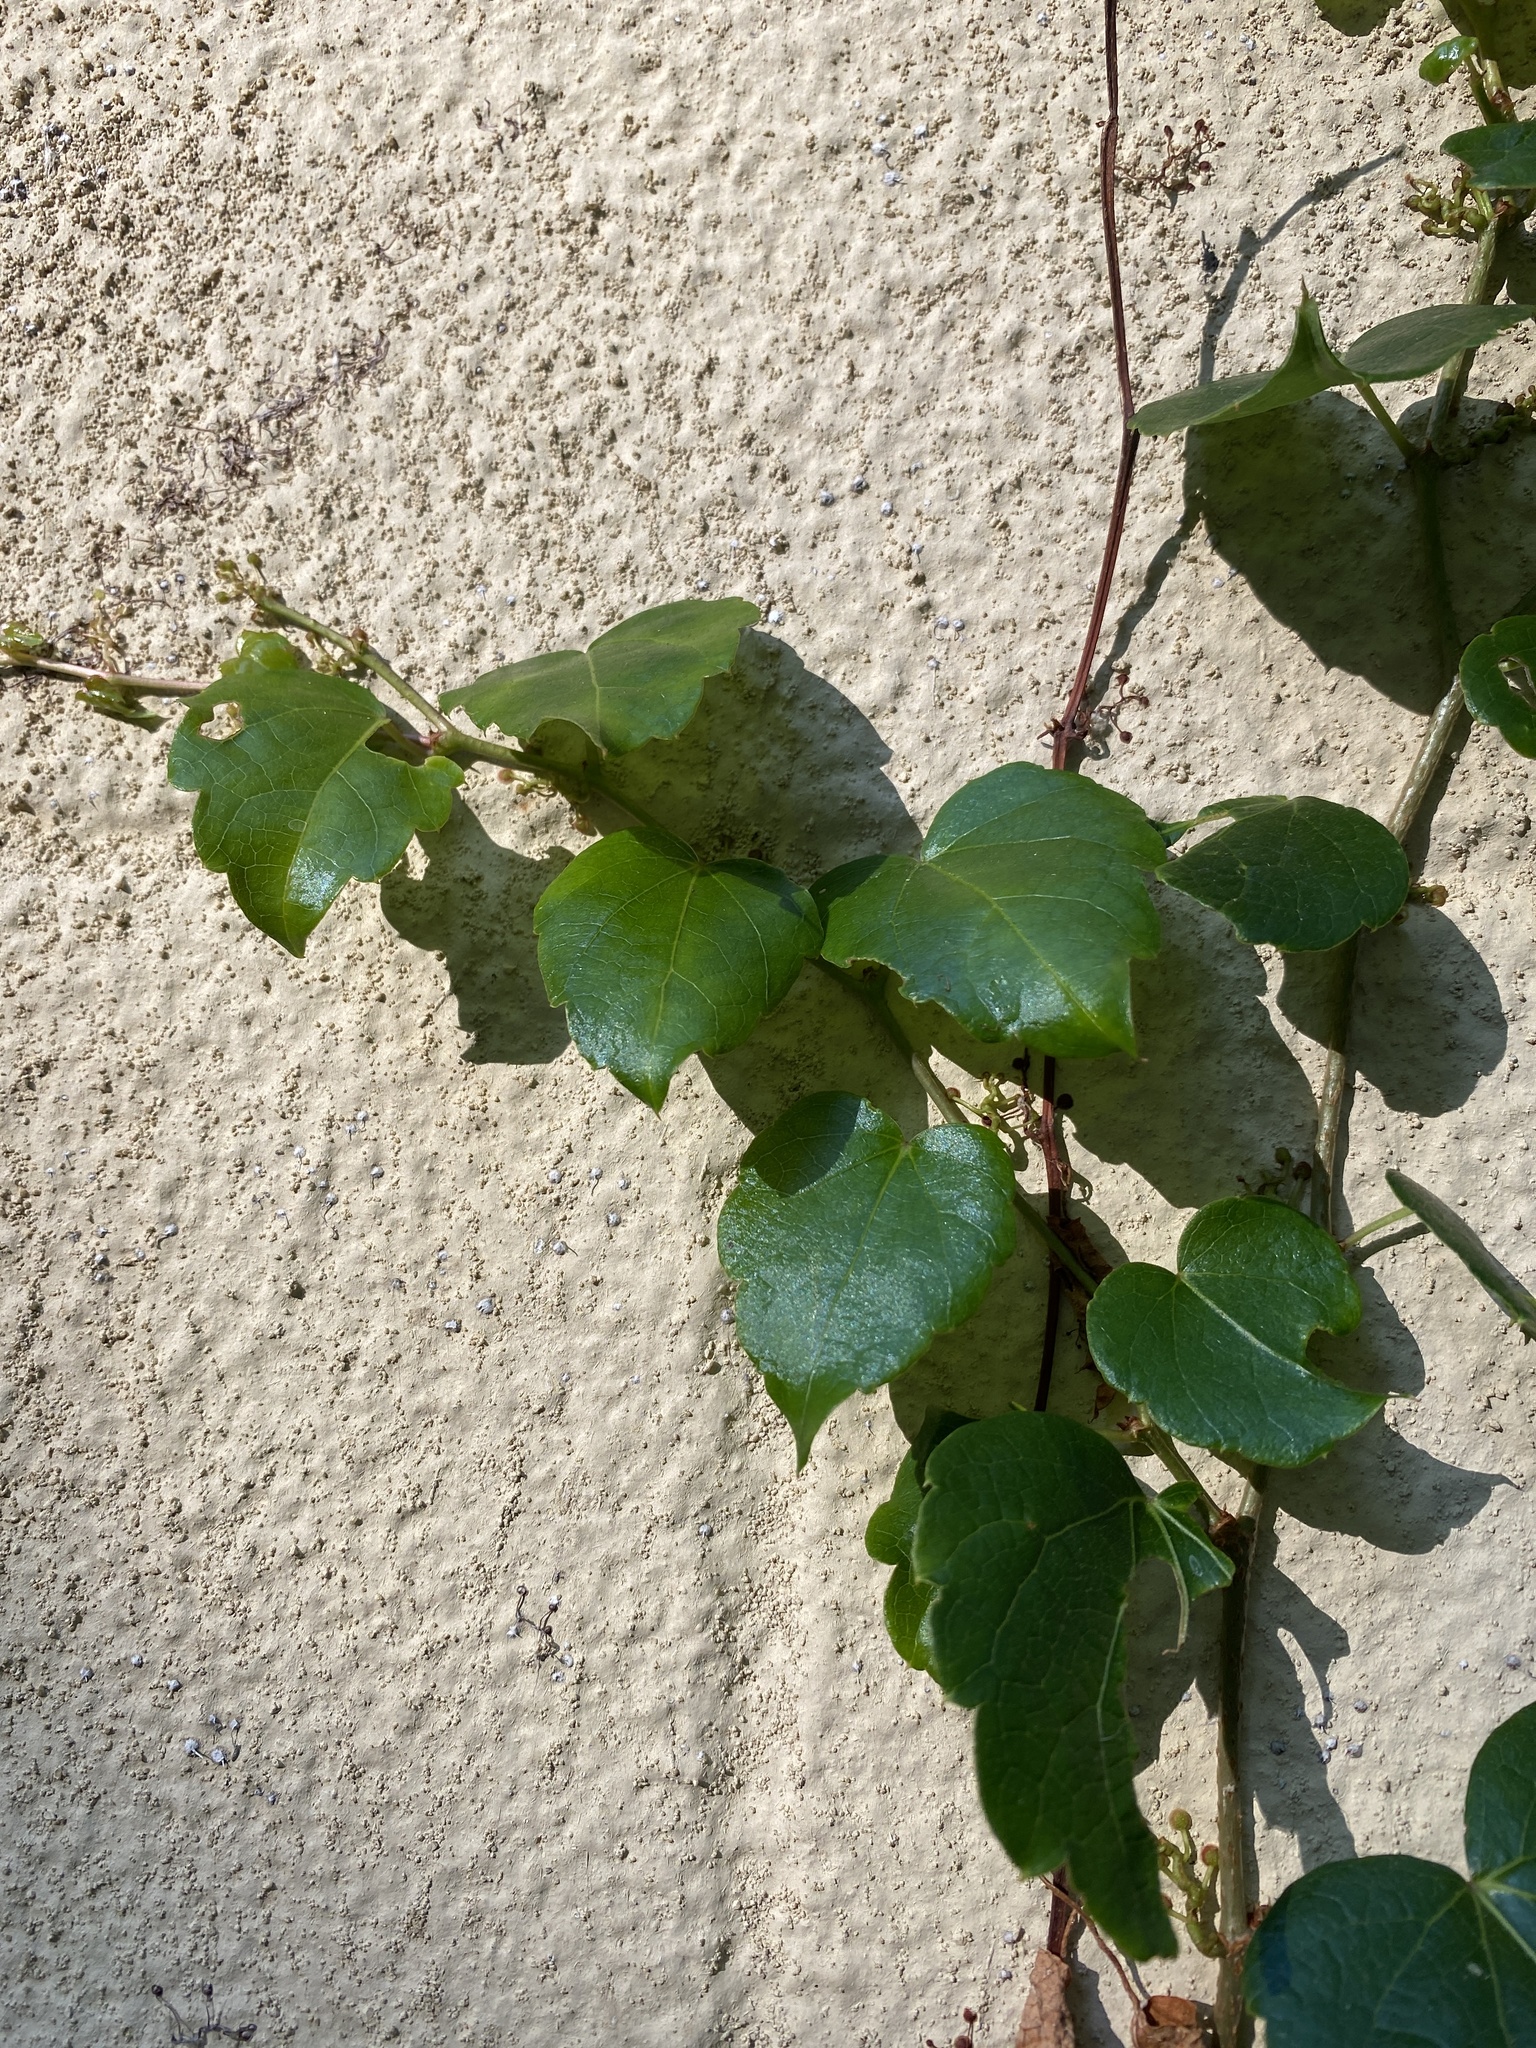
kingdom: Plantae
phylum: Tracheophyta
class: Magnoliopsida
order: Vitales
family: Vitaceae
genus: Parthenocissus
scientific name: Parthenocissus tricuspidata
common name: Boston ivy
